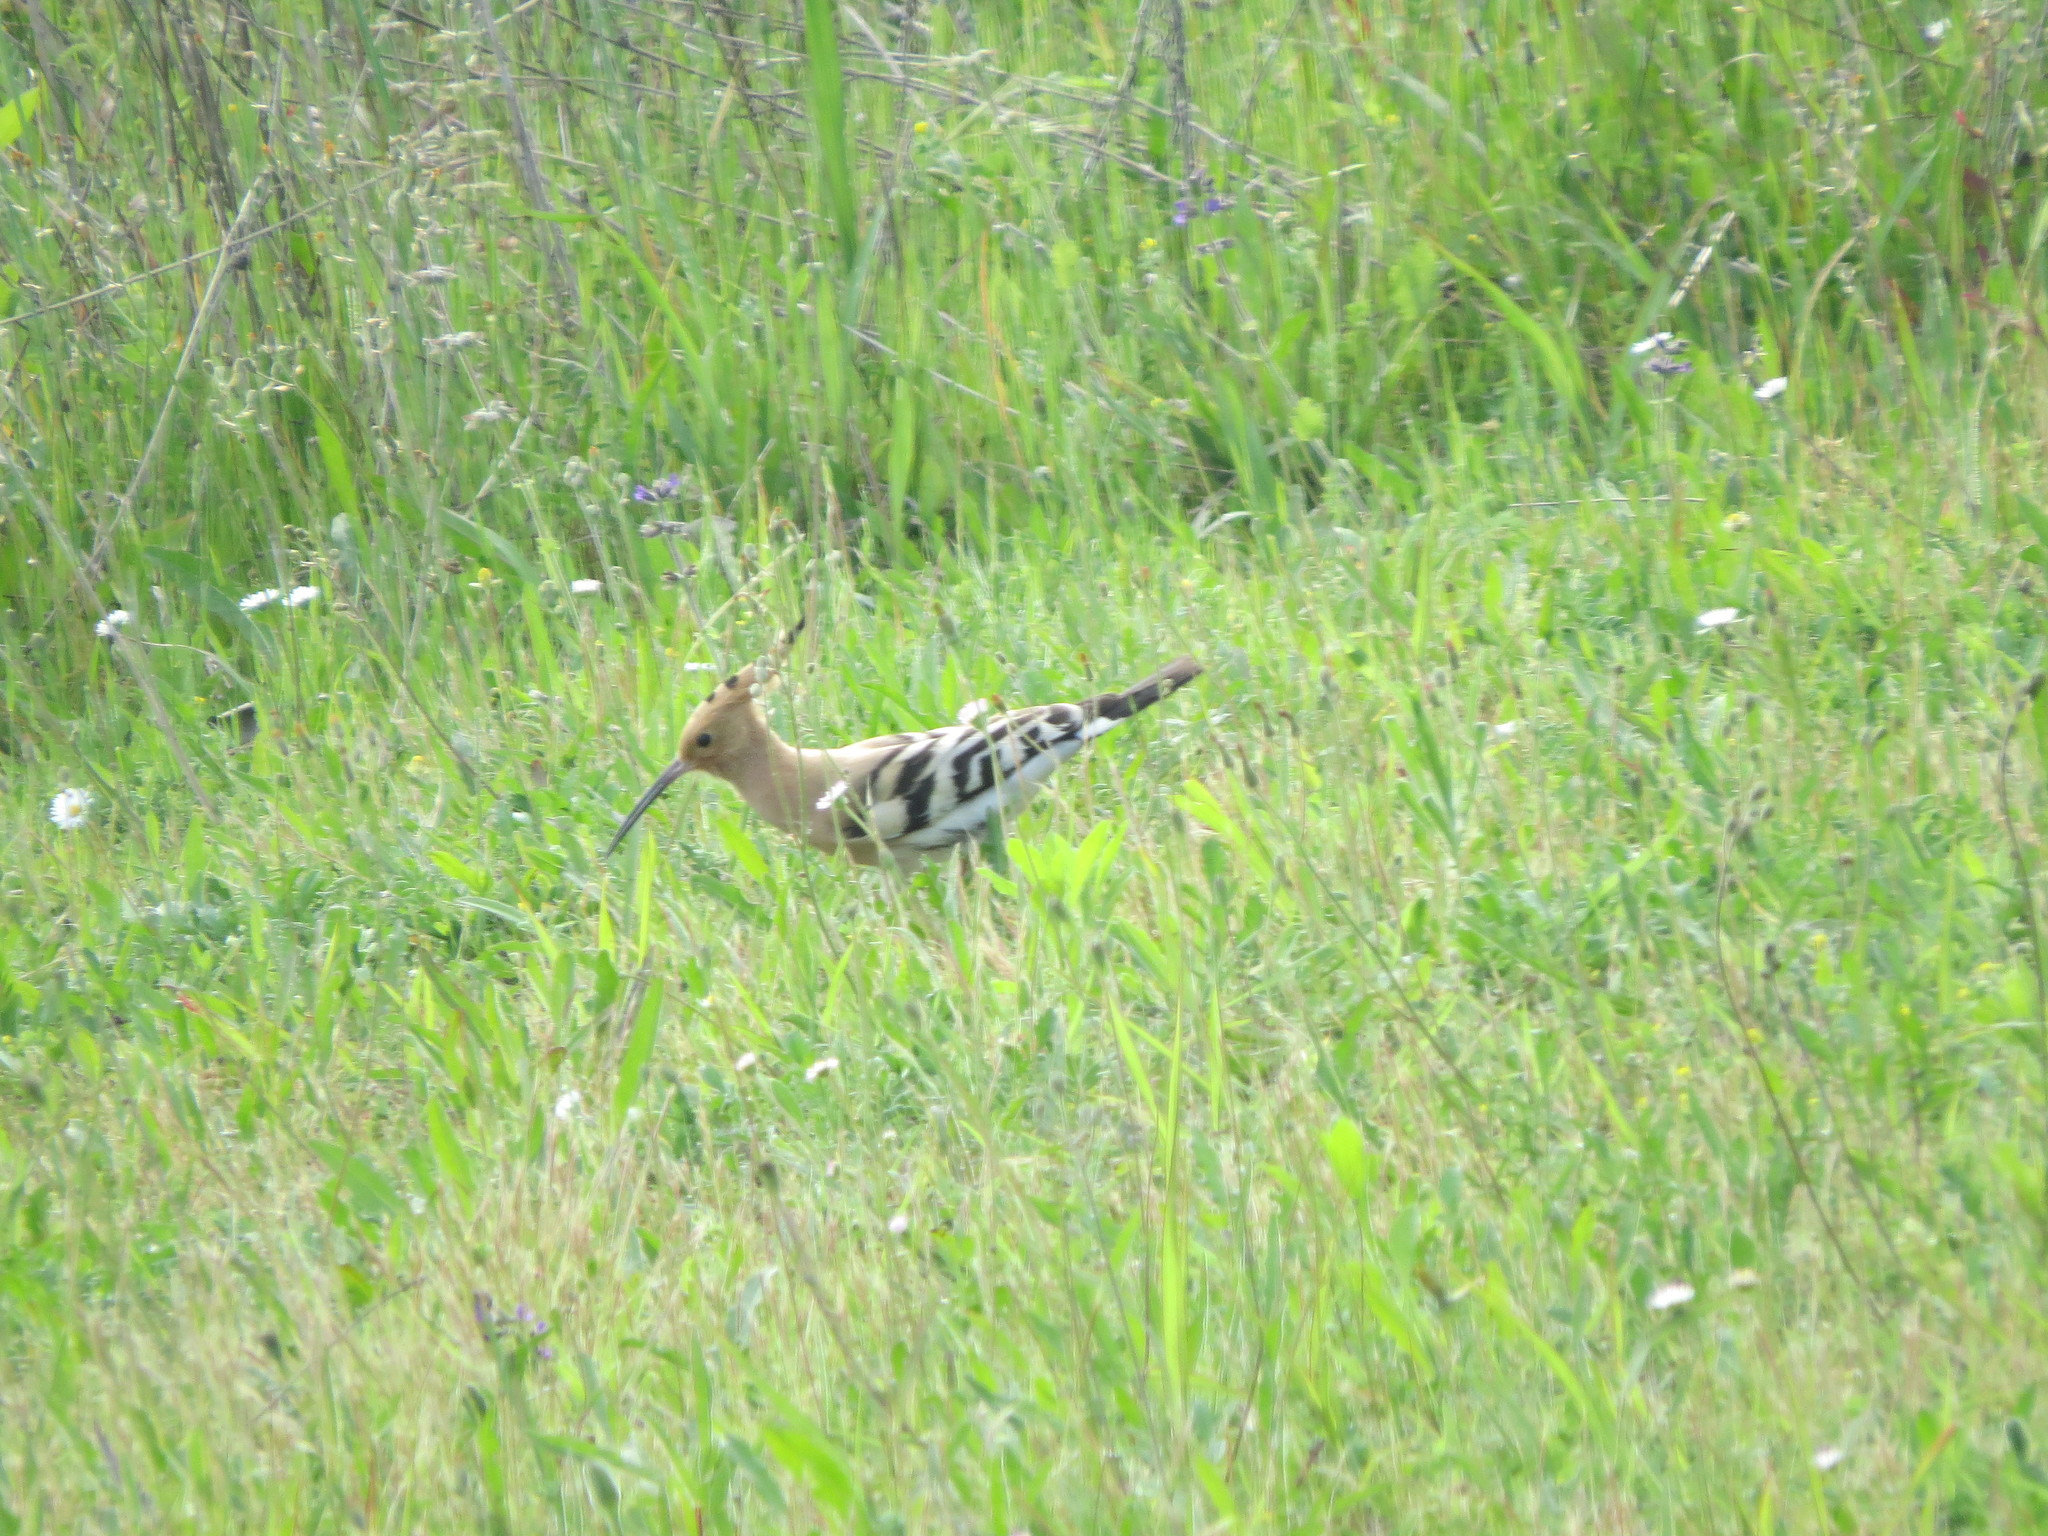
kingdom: Animalia
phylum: Chordata
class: Aves
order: Bucerotiformes
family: Upupidae
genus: Upupa
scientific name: Upupa epops
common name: Eurasian hoopoe
